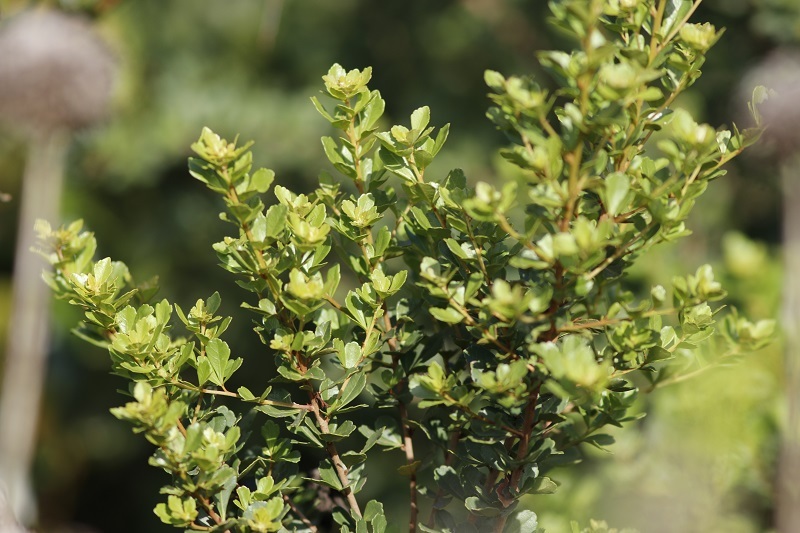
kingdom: Plantae
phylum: Tracheophyta
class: Magnoliopsida
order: Sapindales
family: Anacardiaceae
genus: Searsia
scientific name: Searsia crenata
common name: Crowberry
